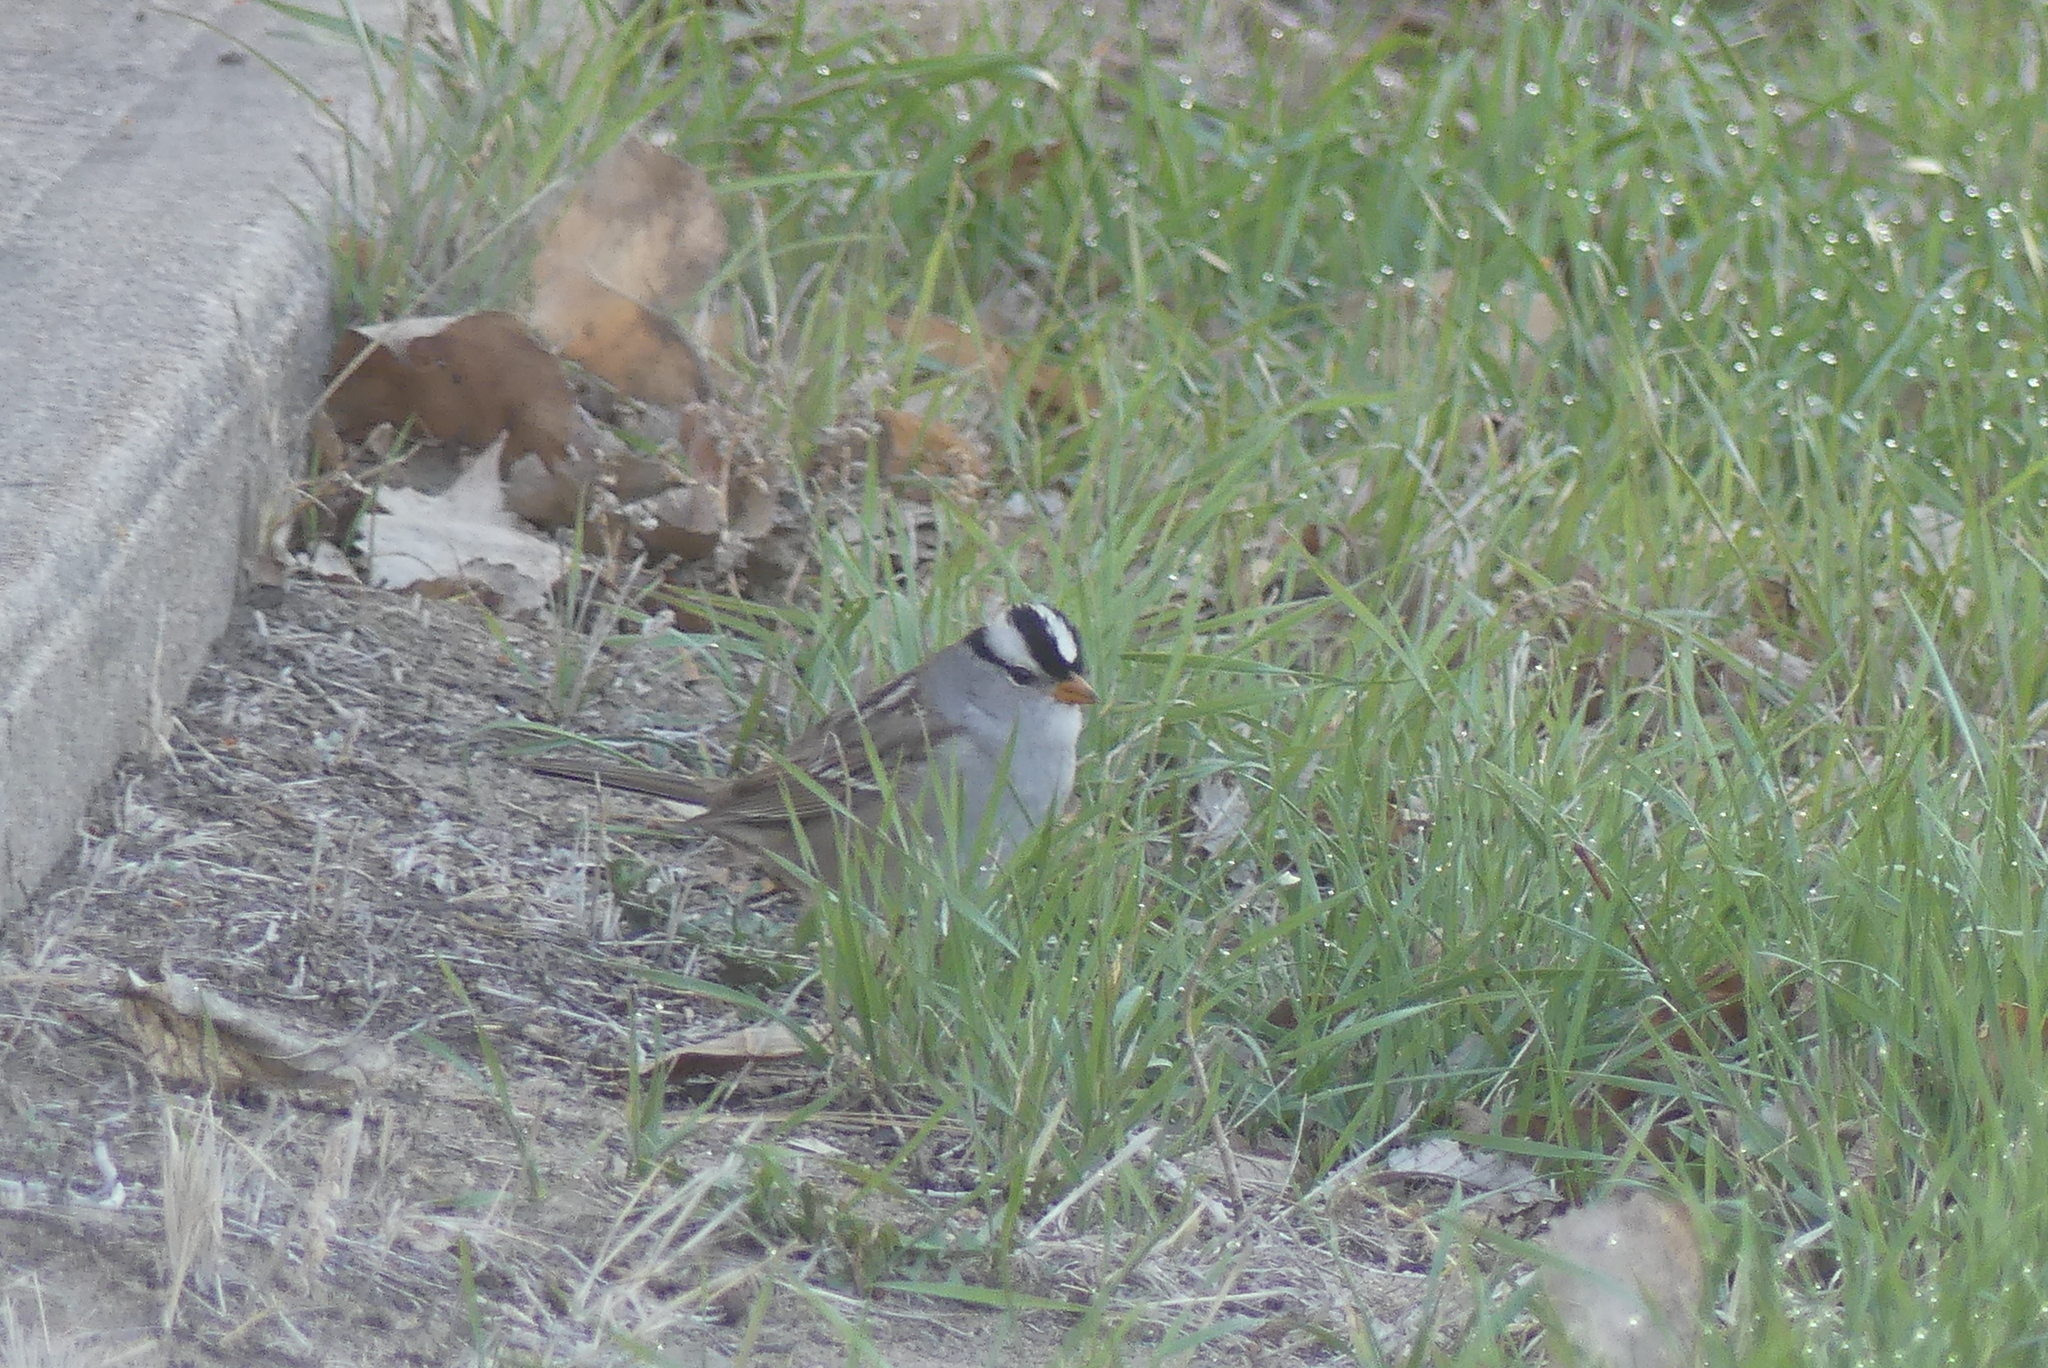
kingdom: Animalia
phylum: Chordata
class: Aves
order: Passeriformes
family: Passerellidae
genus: Zonotrichia
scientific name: Zonotrichia leucophrys
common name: White-crowned sparrow
